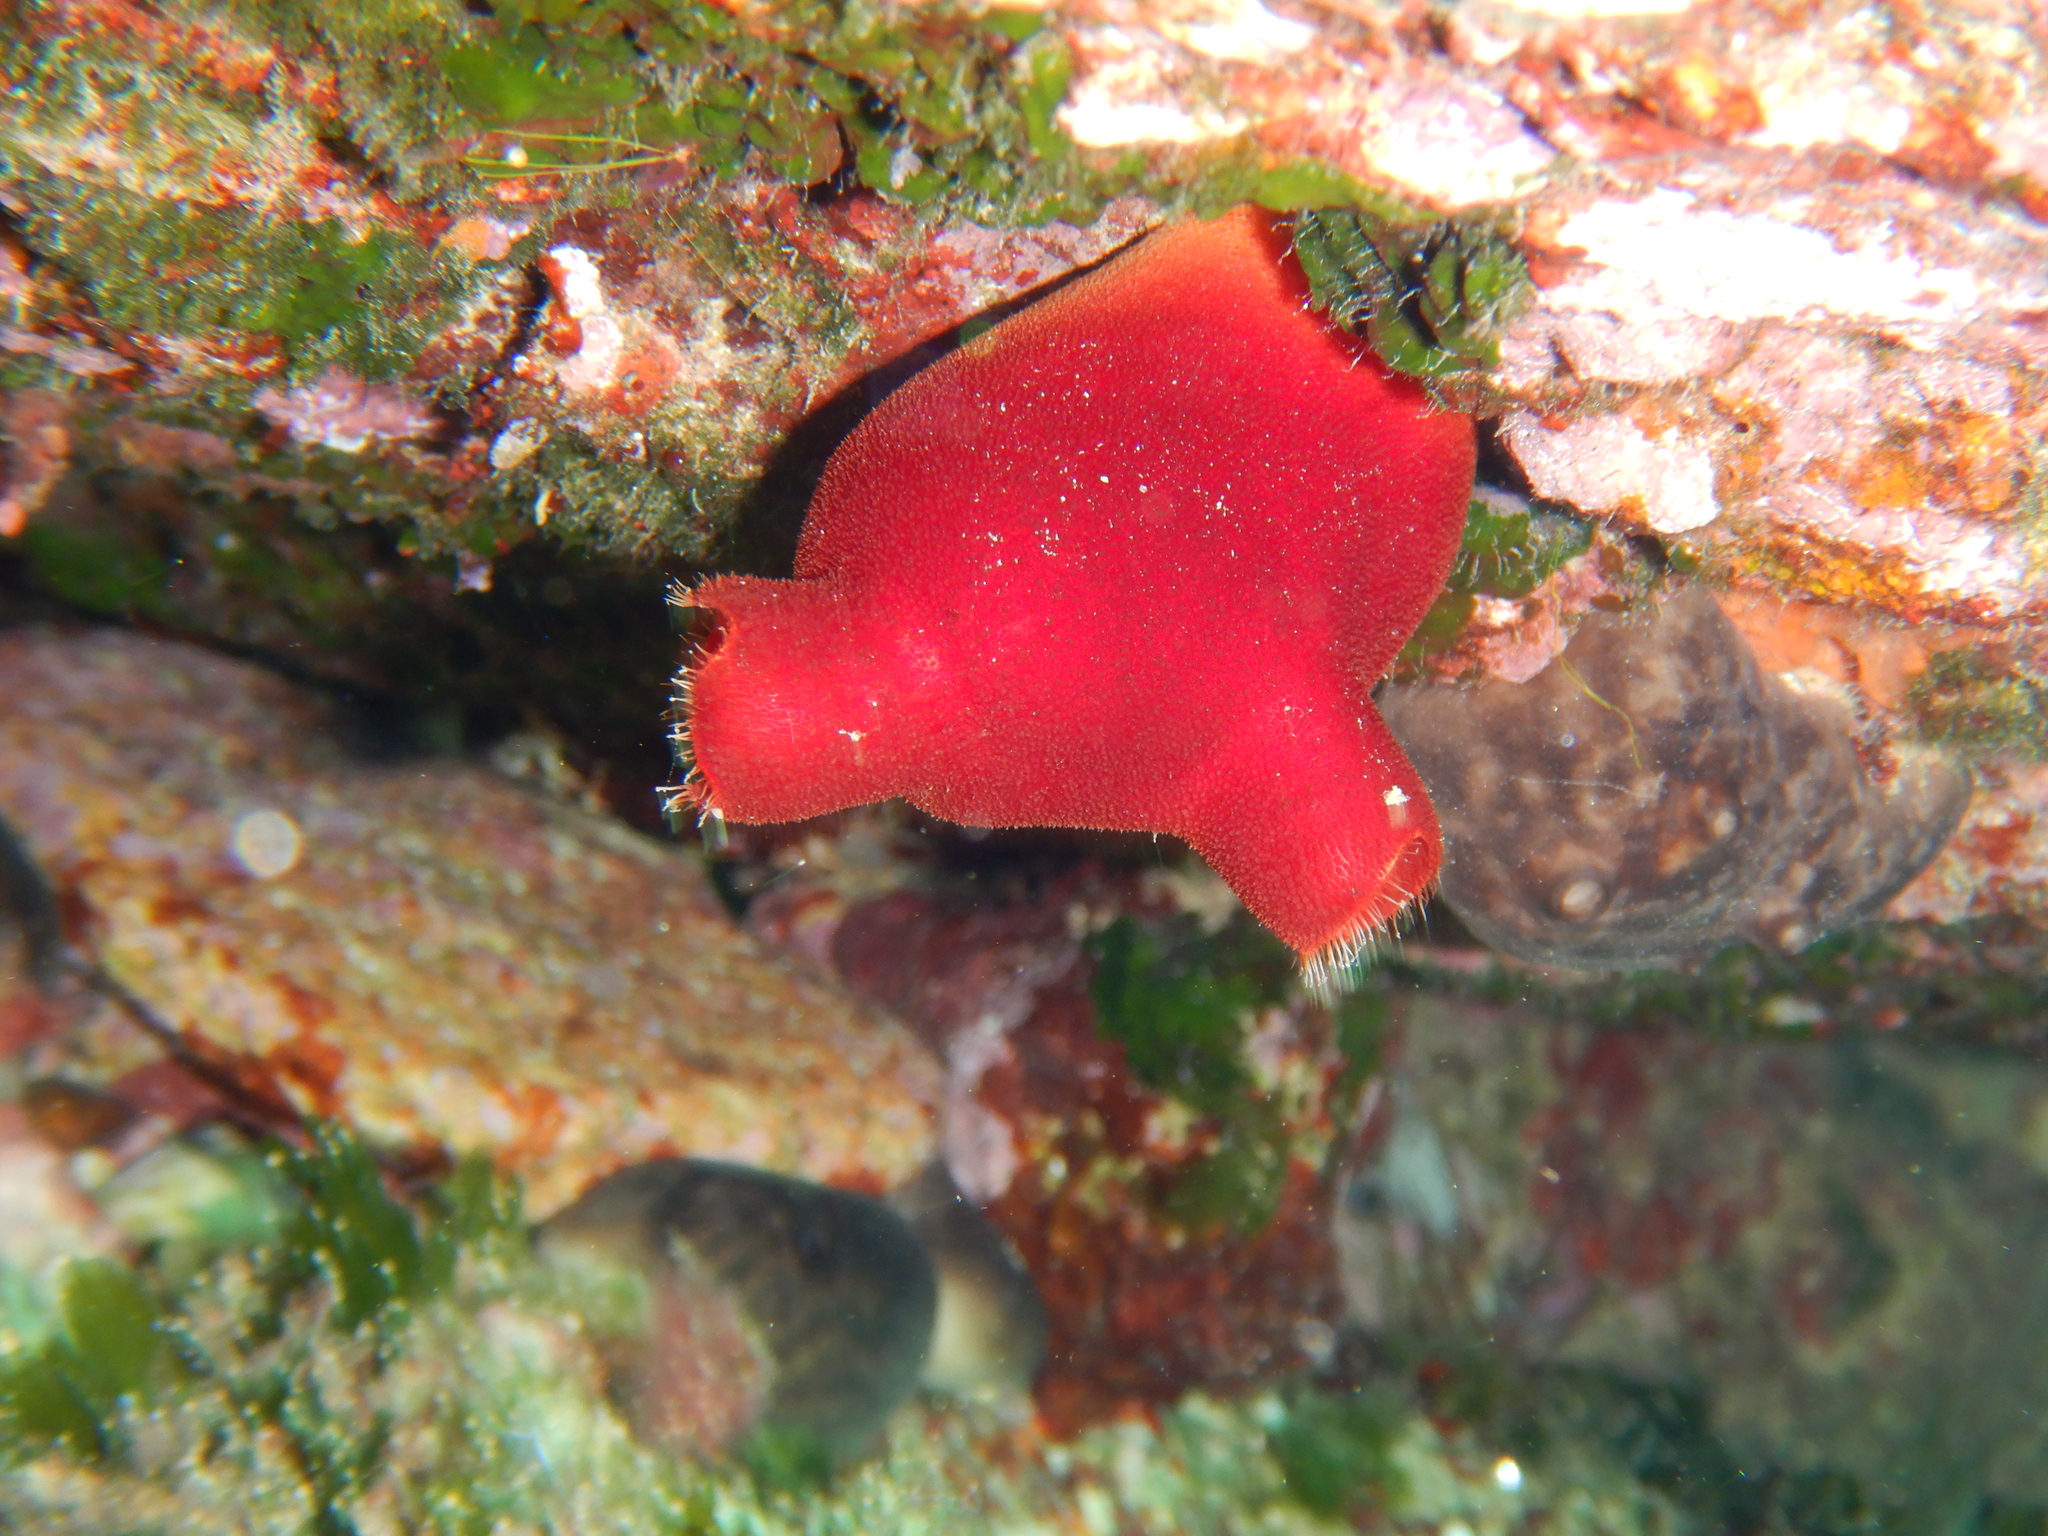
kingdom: Animalia
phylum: Chordata
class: Ascidiacea
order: Stolidobranchia
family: Pyuridae
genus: Halocynthia
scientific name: Halocynthia papillosa
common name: Red sea-squirt
